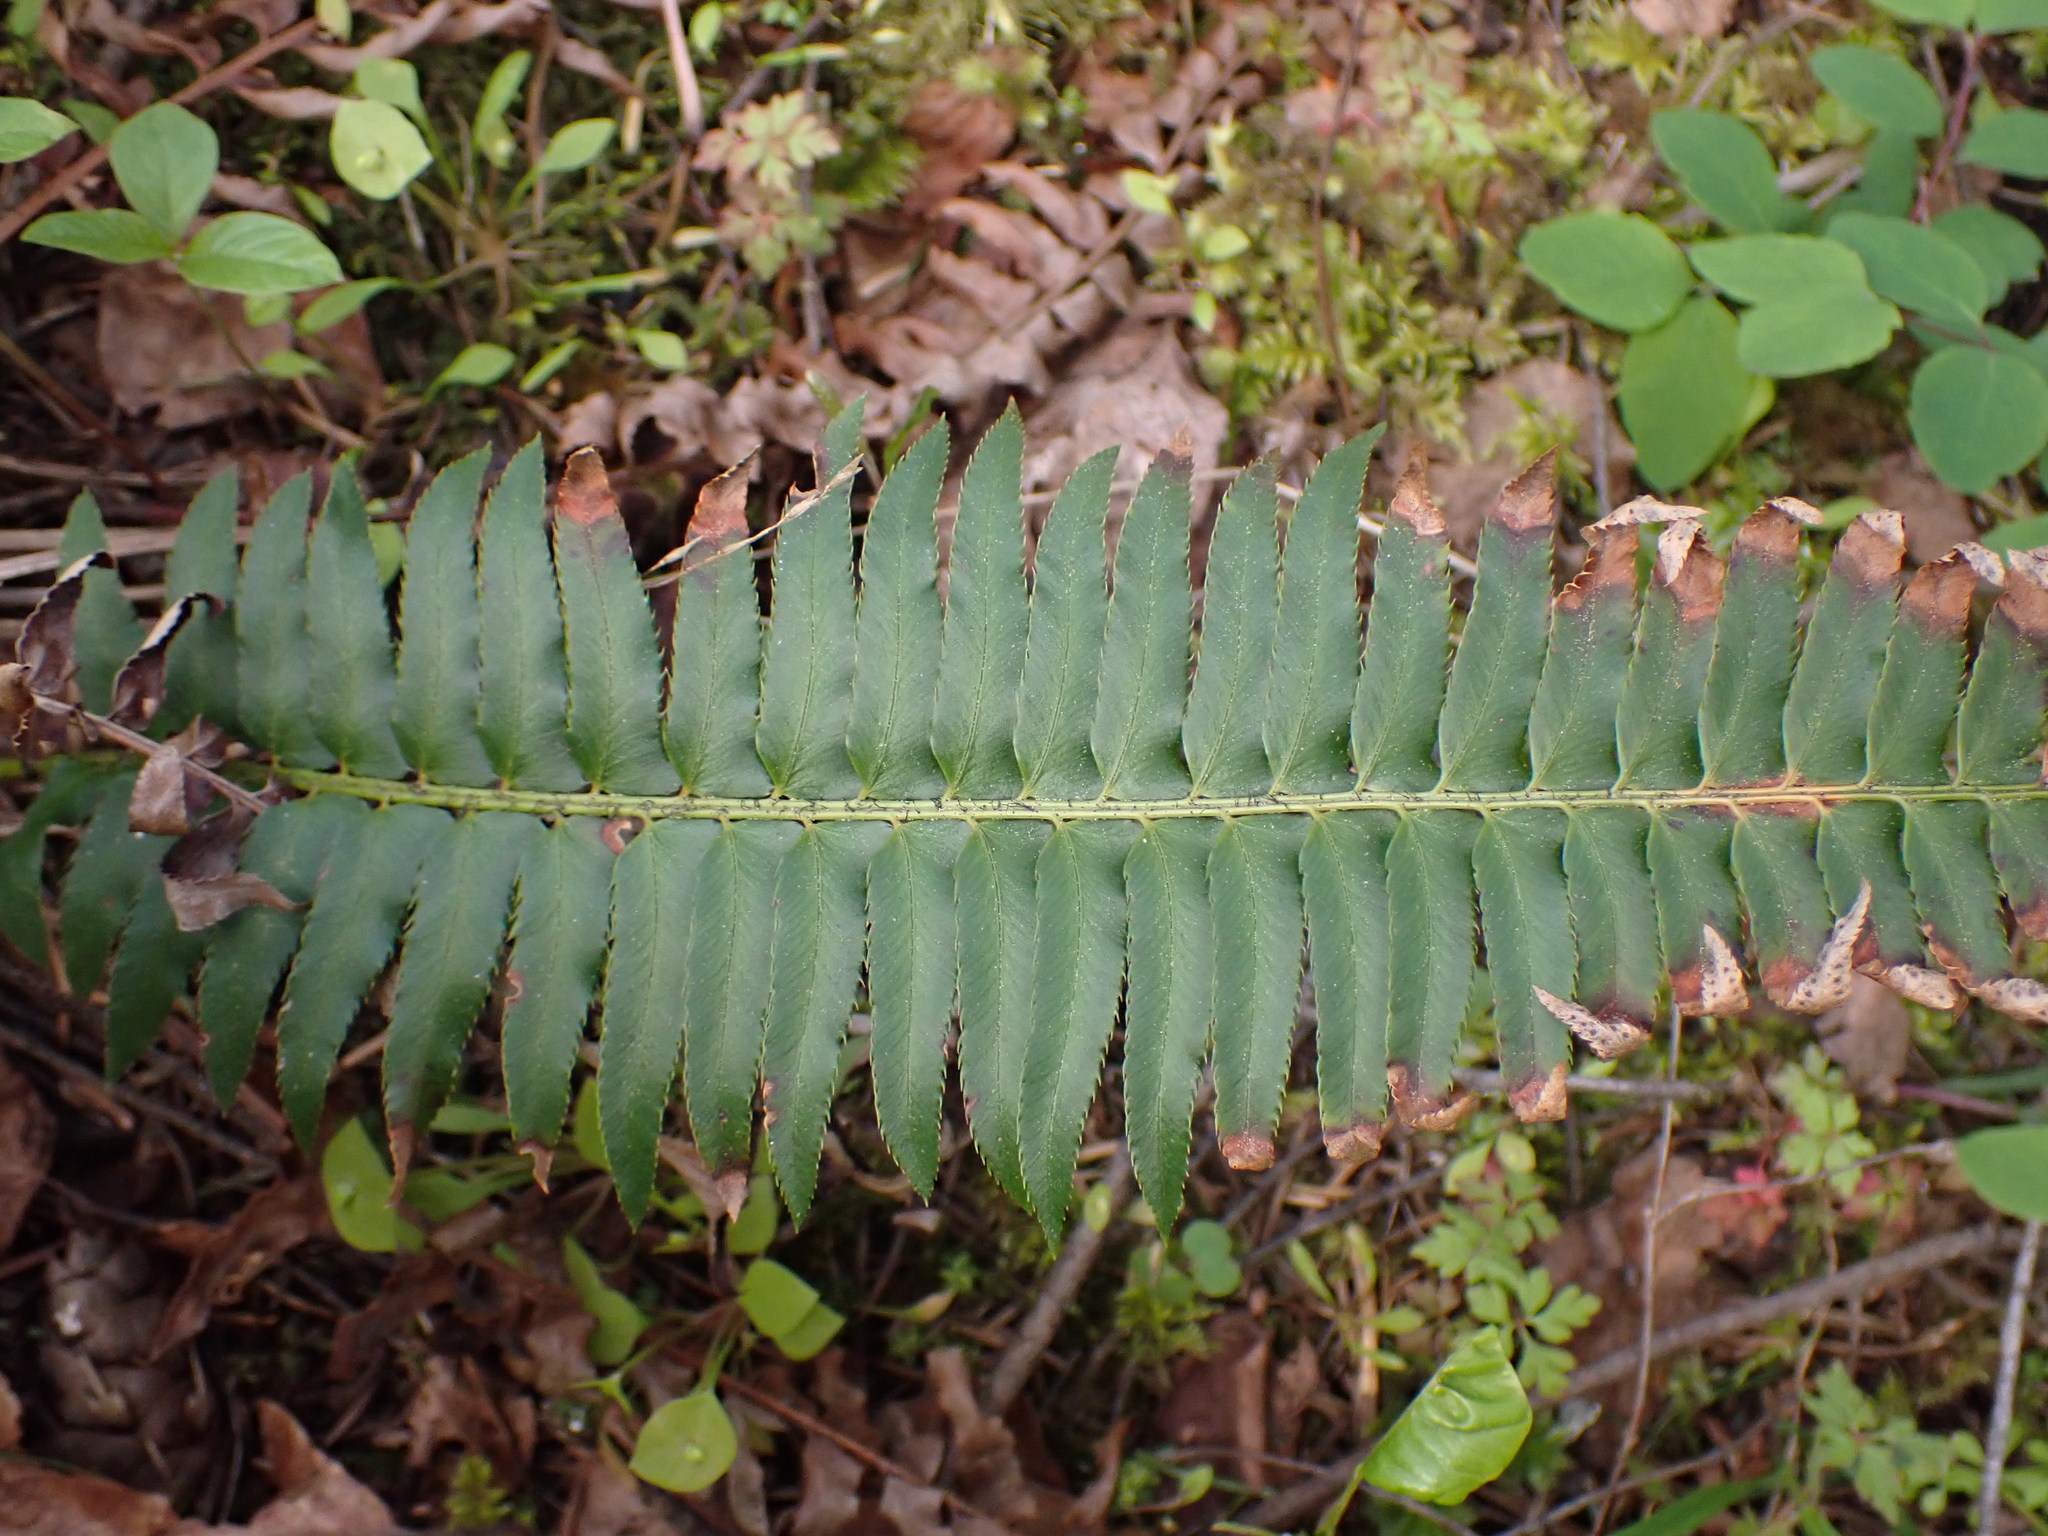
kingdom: Plantae
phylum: Tracheophyta
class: Polypodiopsida
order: Polypodiales
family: Dryopteridaceae
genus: Polystichum
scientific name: Polystichum munitum
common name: Western sword-fern
